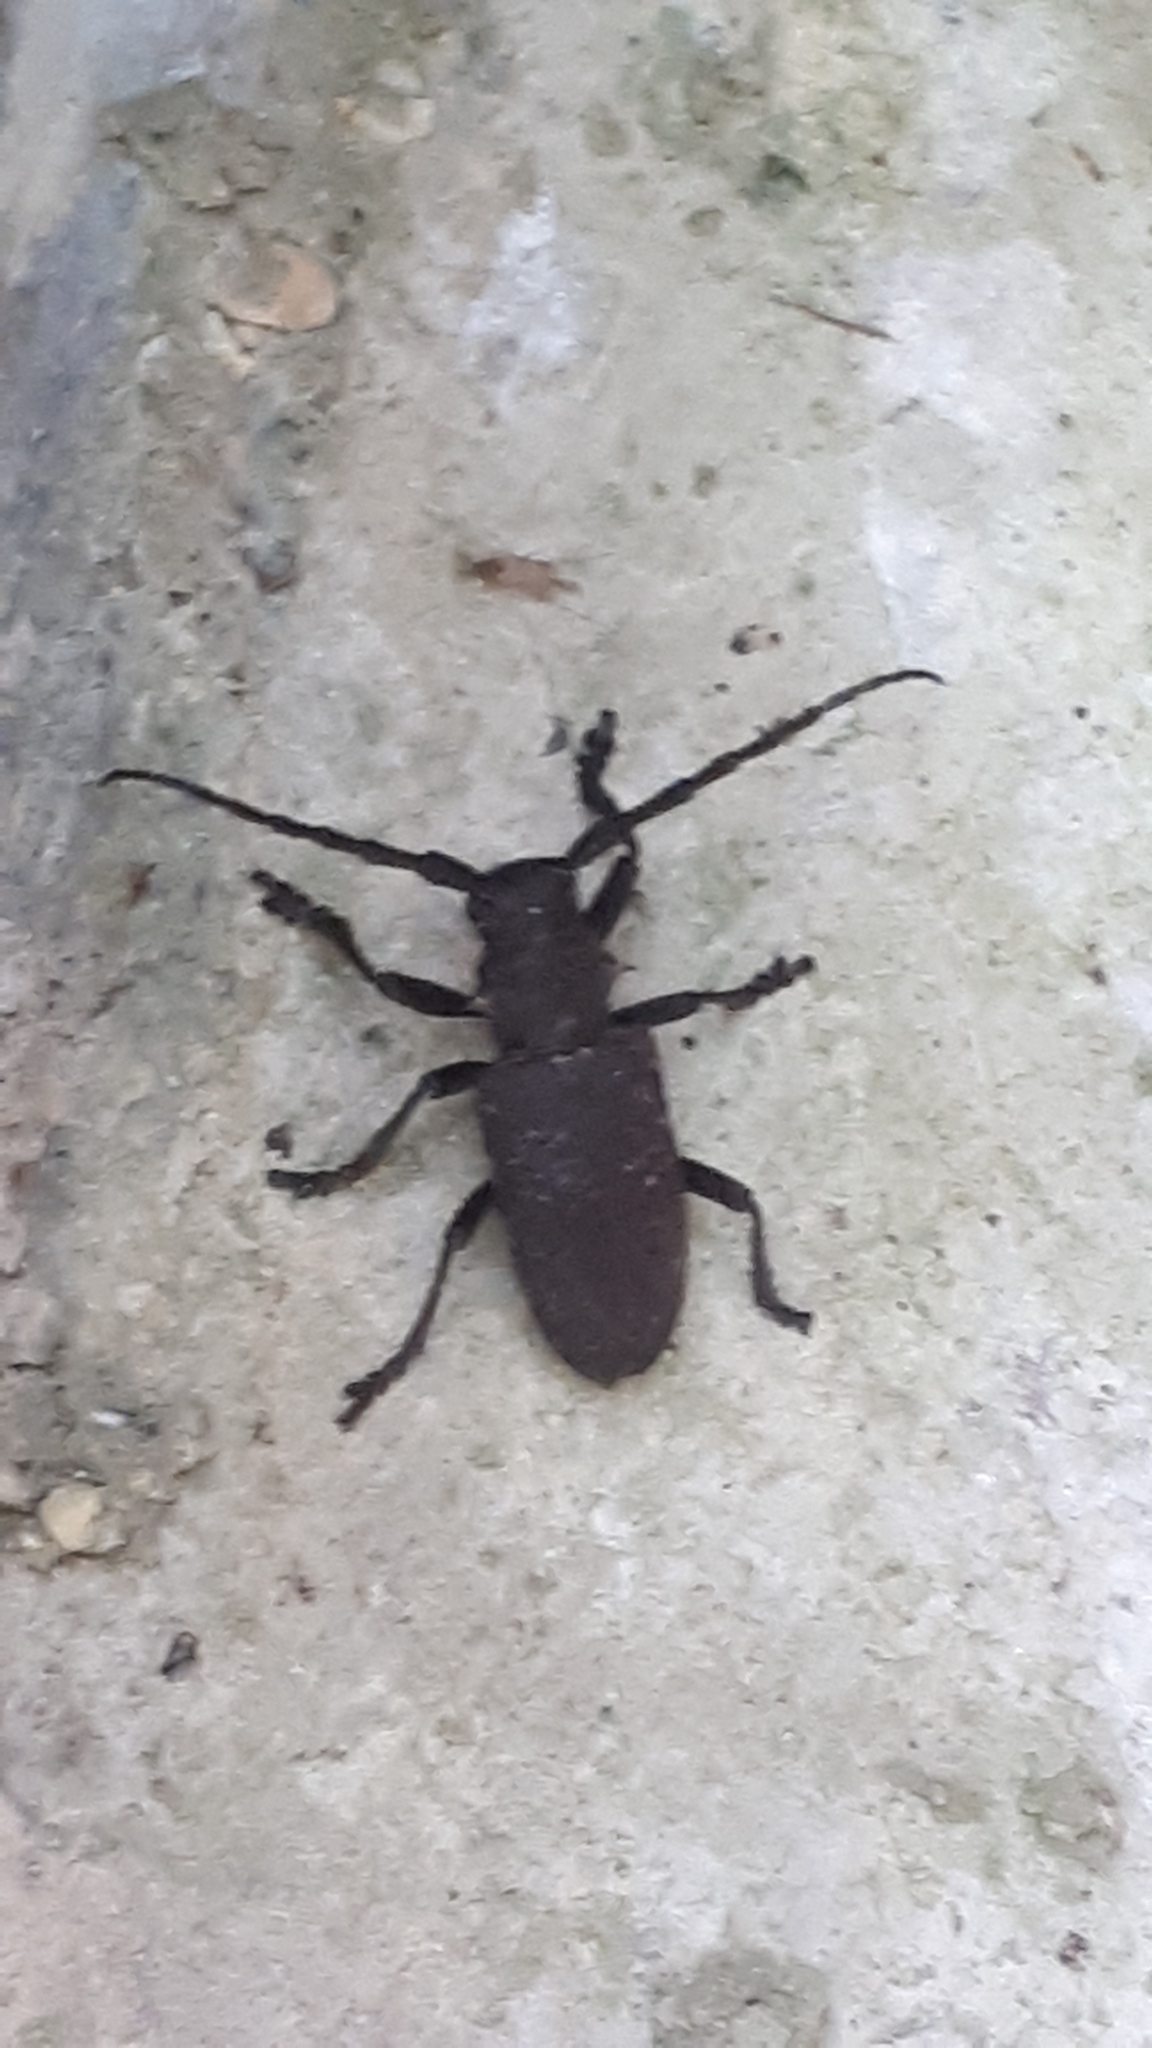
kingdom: Animalia
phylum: Arthropoda
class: Insecta
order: Coleoptera
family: Cerambycidae
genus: Lamia
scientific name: Lamia textor
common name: Weaver beetle
